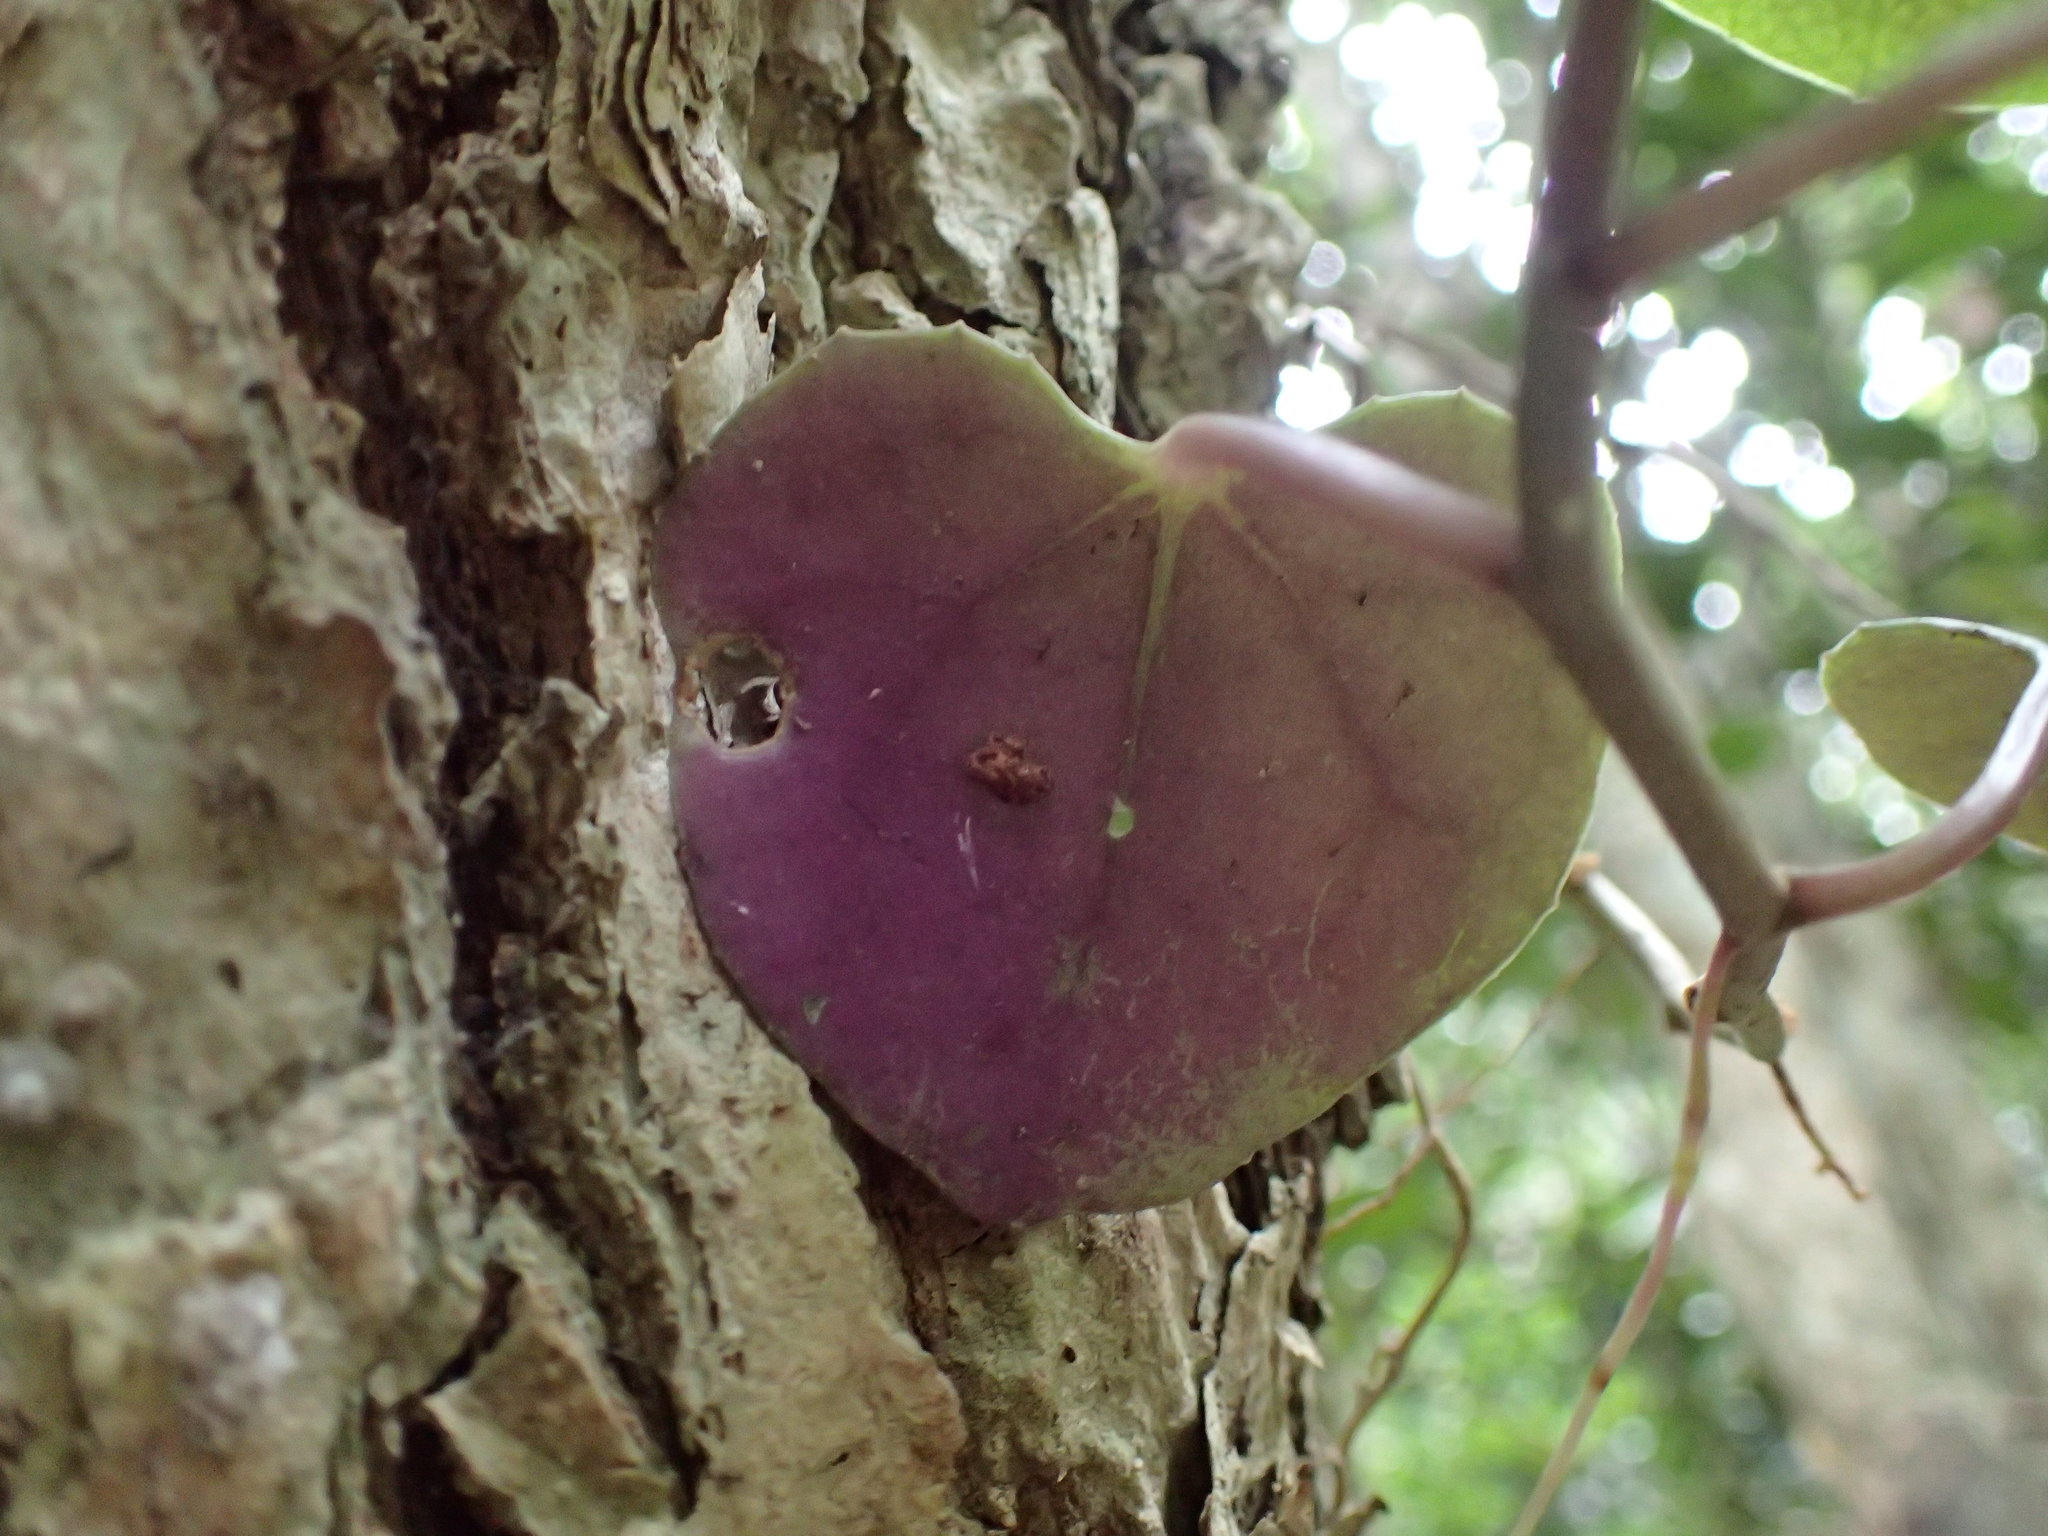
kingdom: Plantae
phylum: Tracheophyta
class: Magnoliopsida
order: Asterales
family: Asteraceae
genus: Senecio
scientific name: Senecio bryoniifolius
